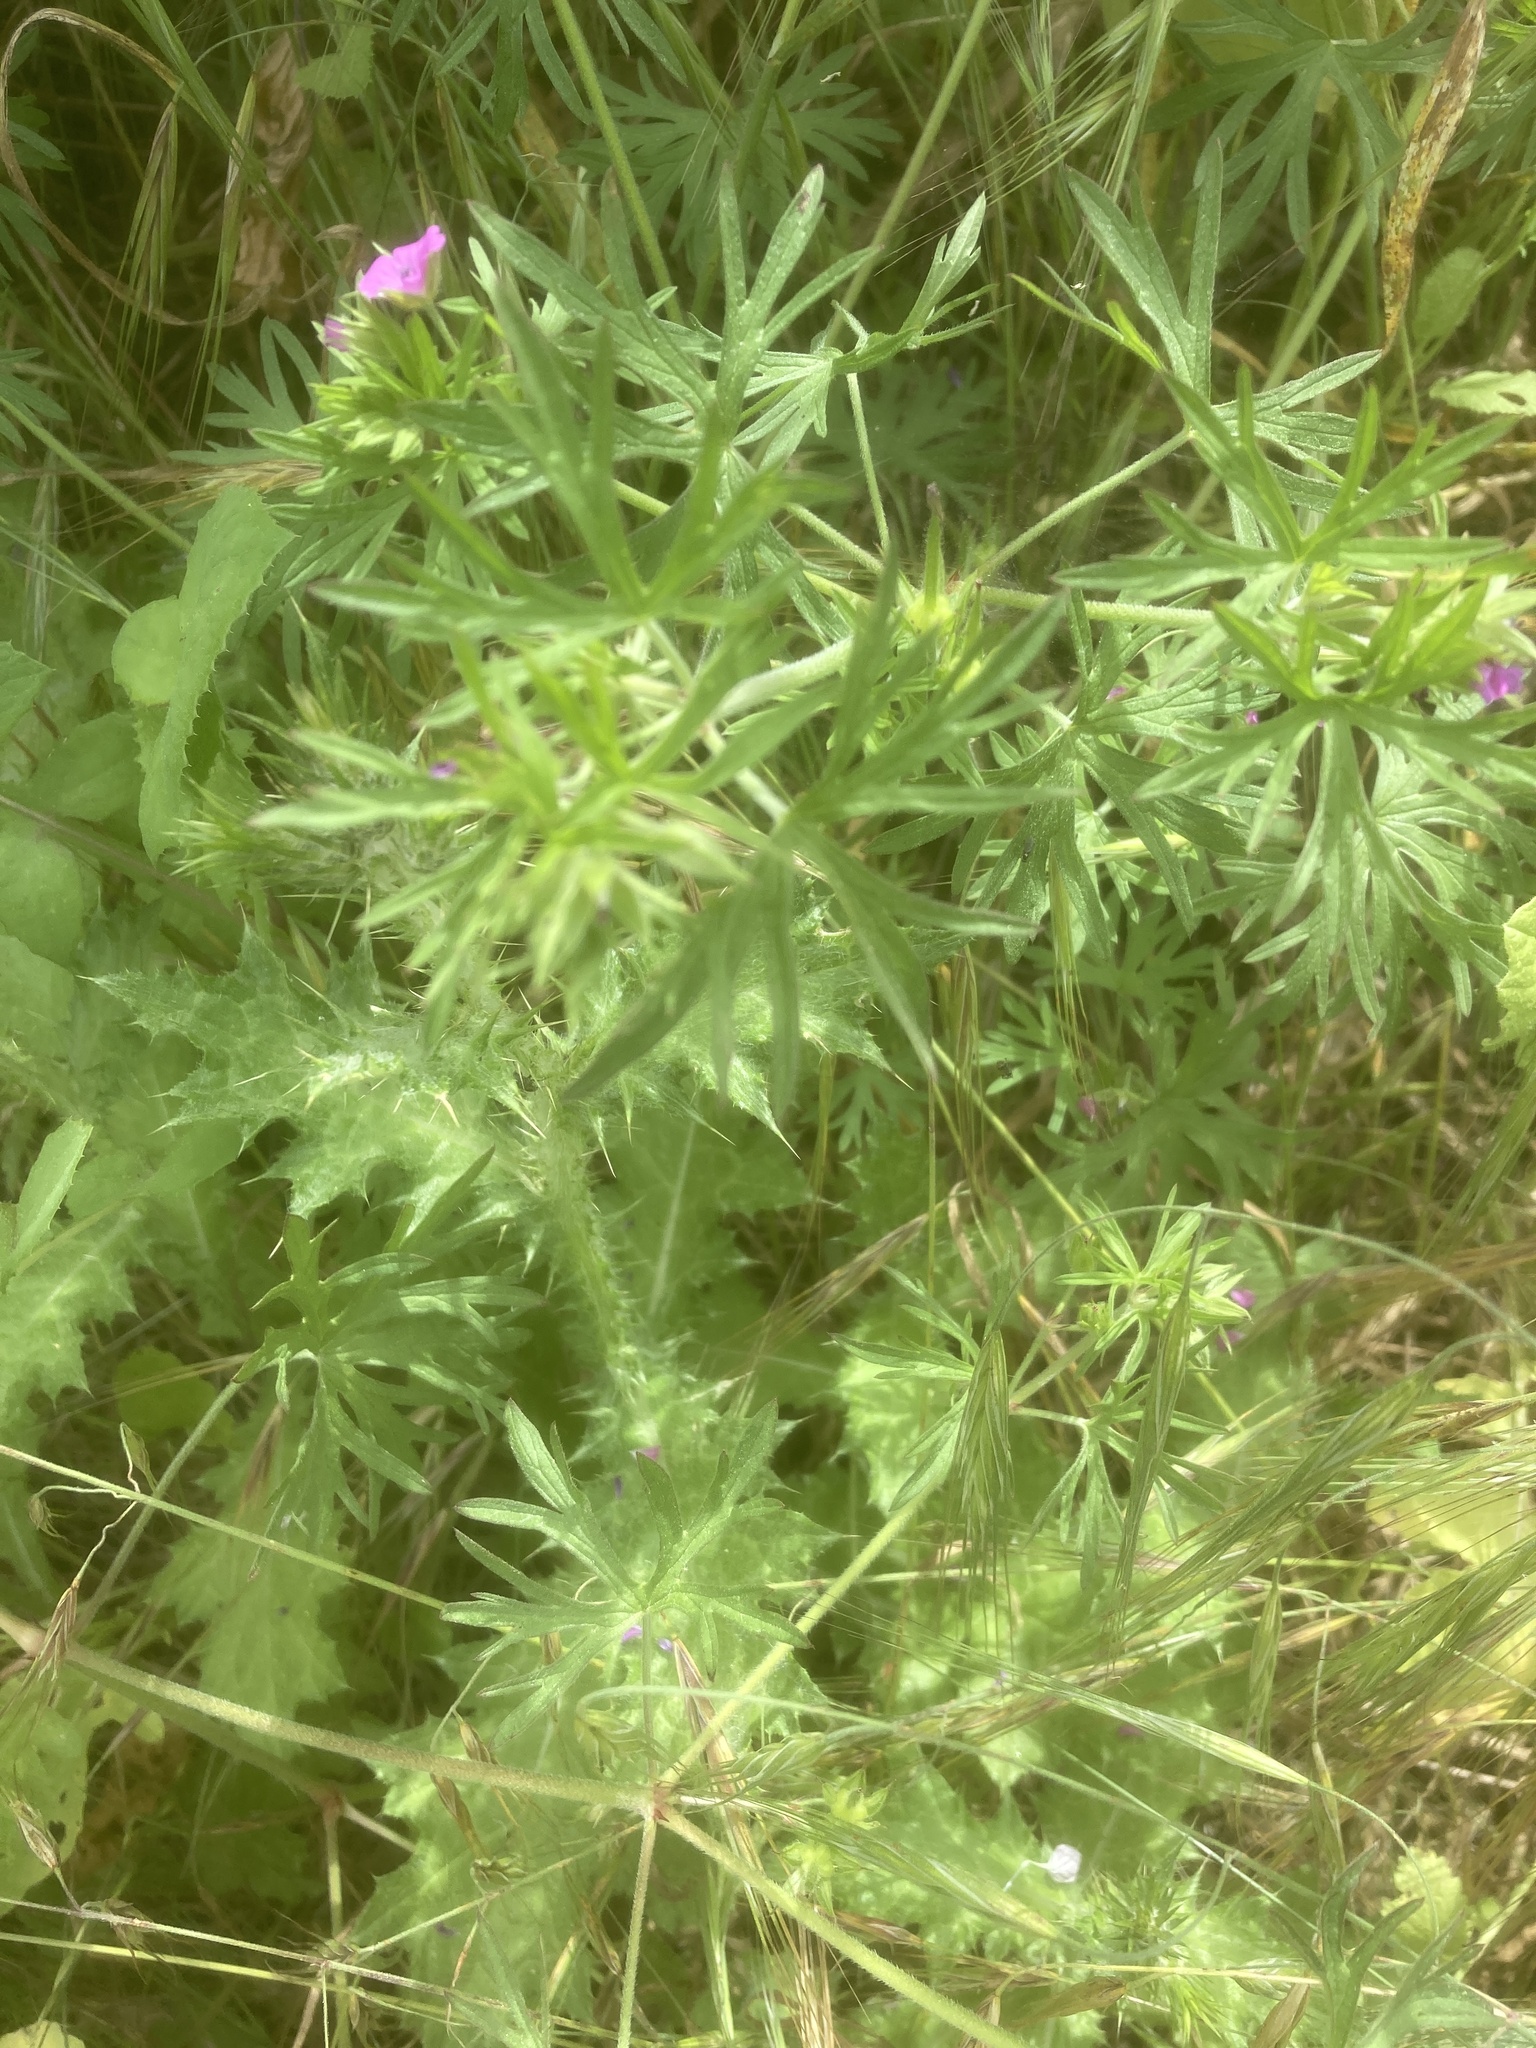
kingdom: Plantae
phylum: Tracheophyta
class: Magnoliopsida
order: Geraniales
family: Geraniaceae
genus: Geranium
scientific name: Geranium dissectum
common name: Cut-leaved crane's-bill
